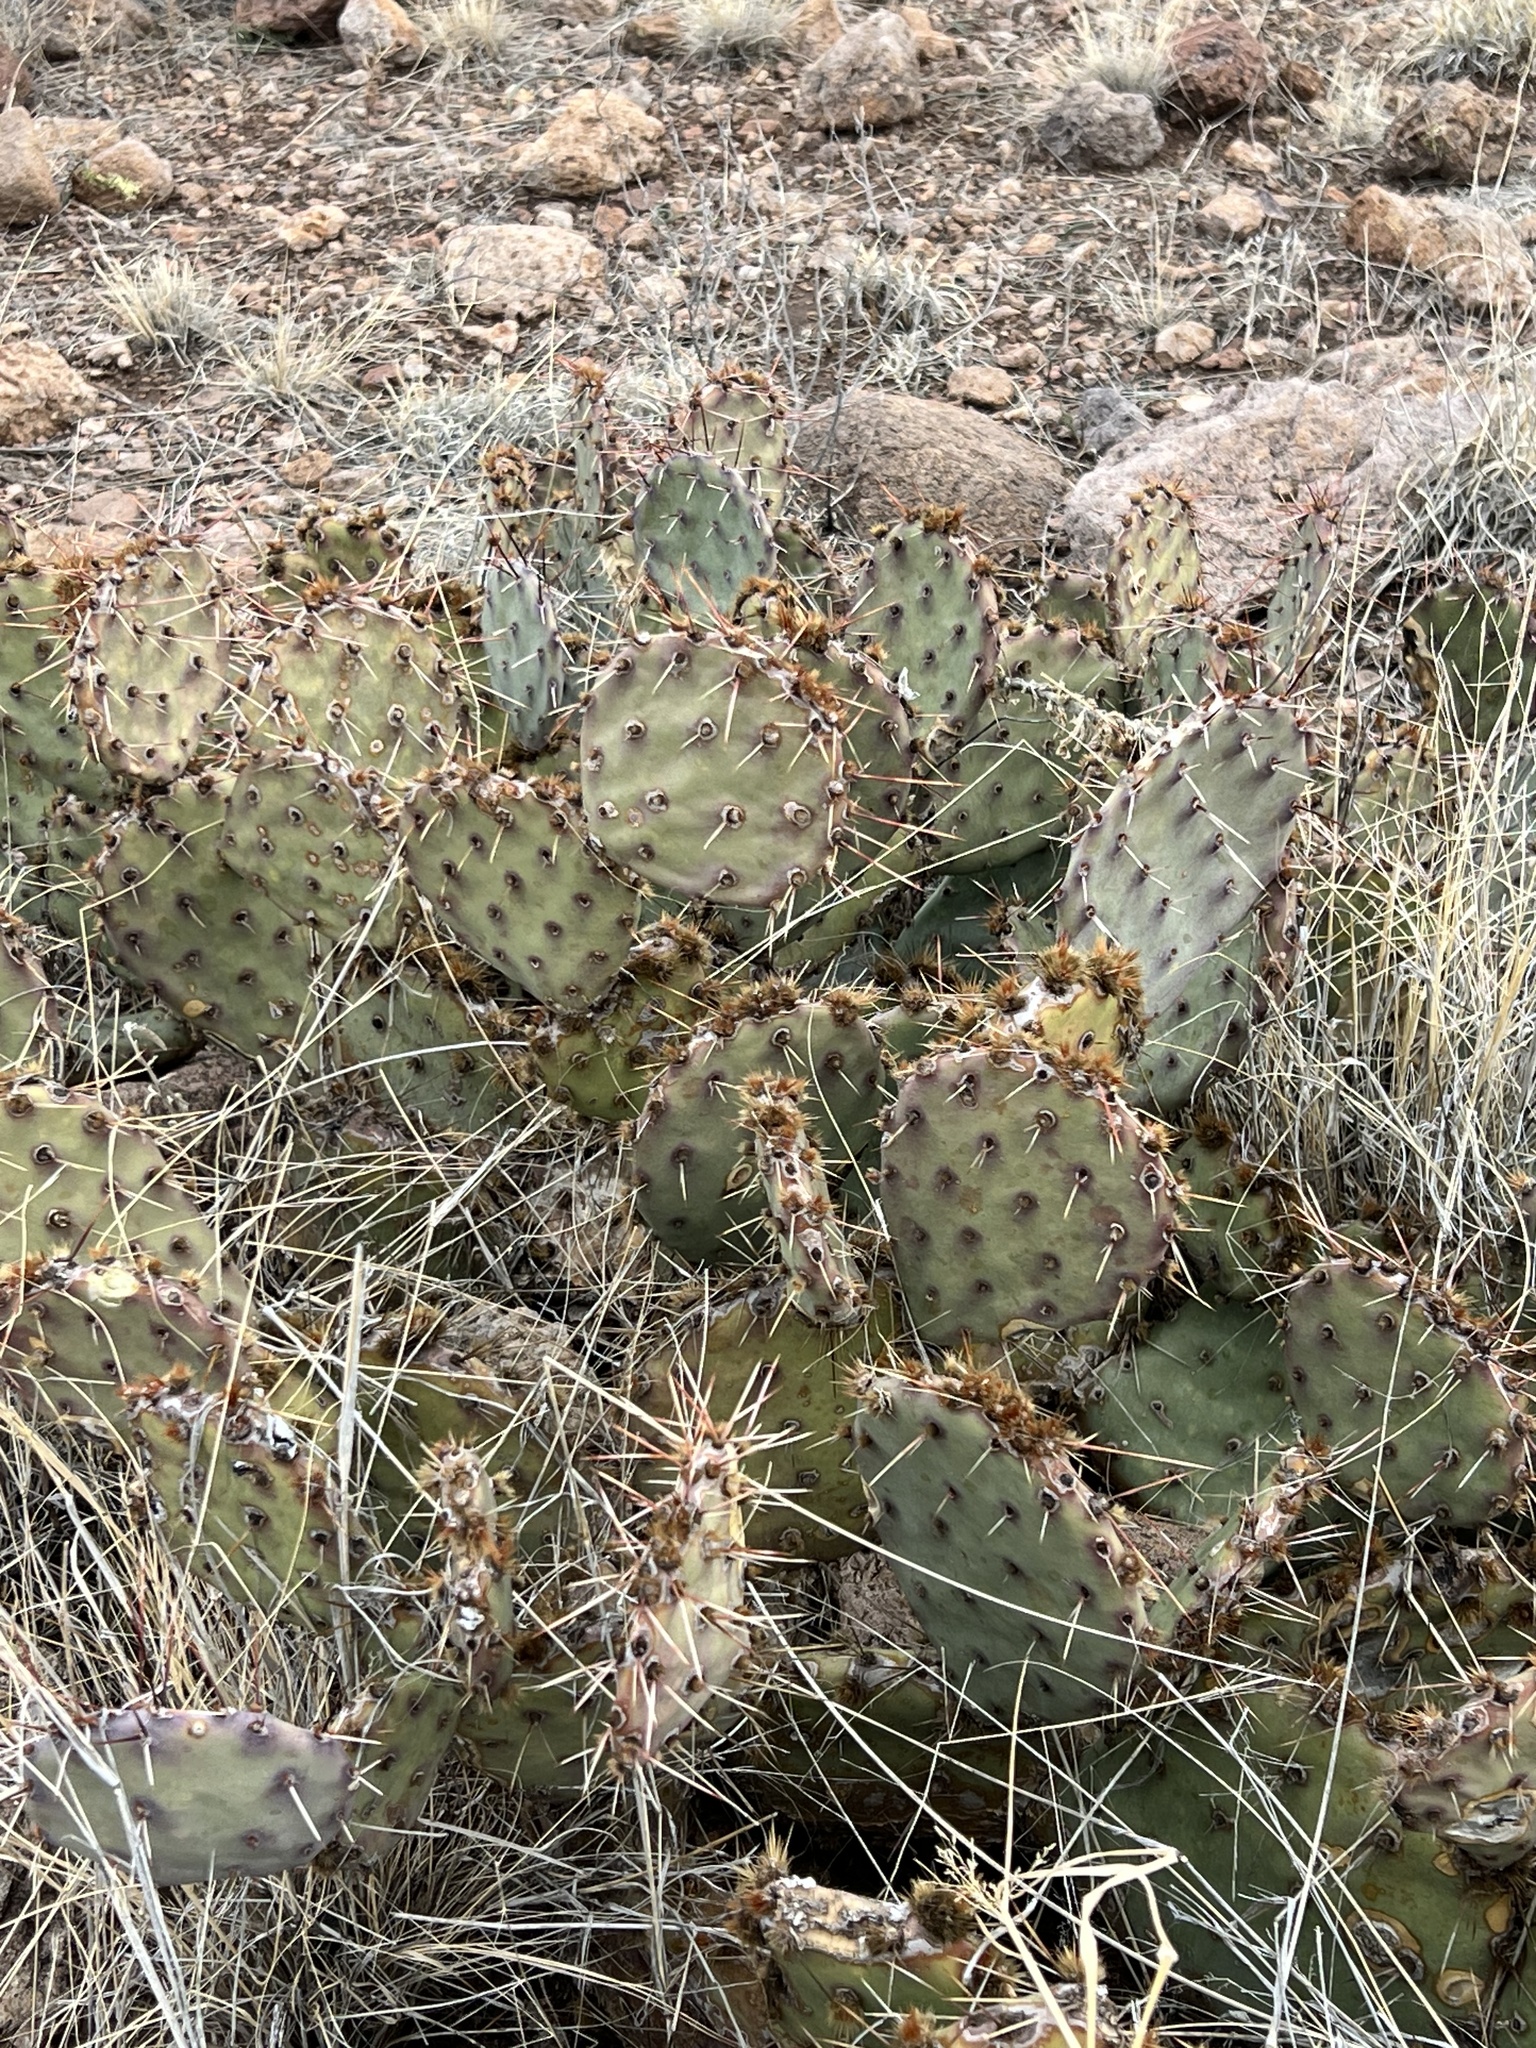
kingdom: Plantae
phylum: Tracheophyta
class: Magnoliopsida
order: Caryophyllales
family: Cactaceae
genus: Opuntia
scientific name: Opuntia phaeacantha
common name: New mexico prickly-pear
